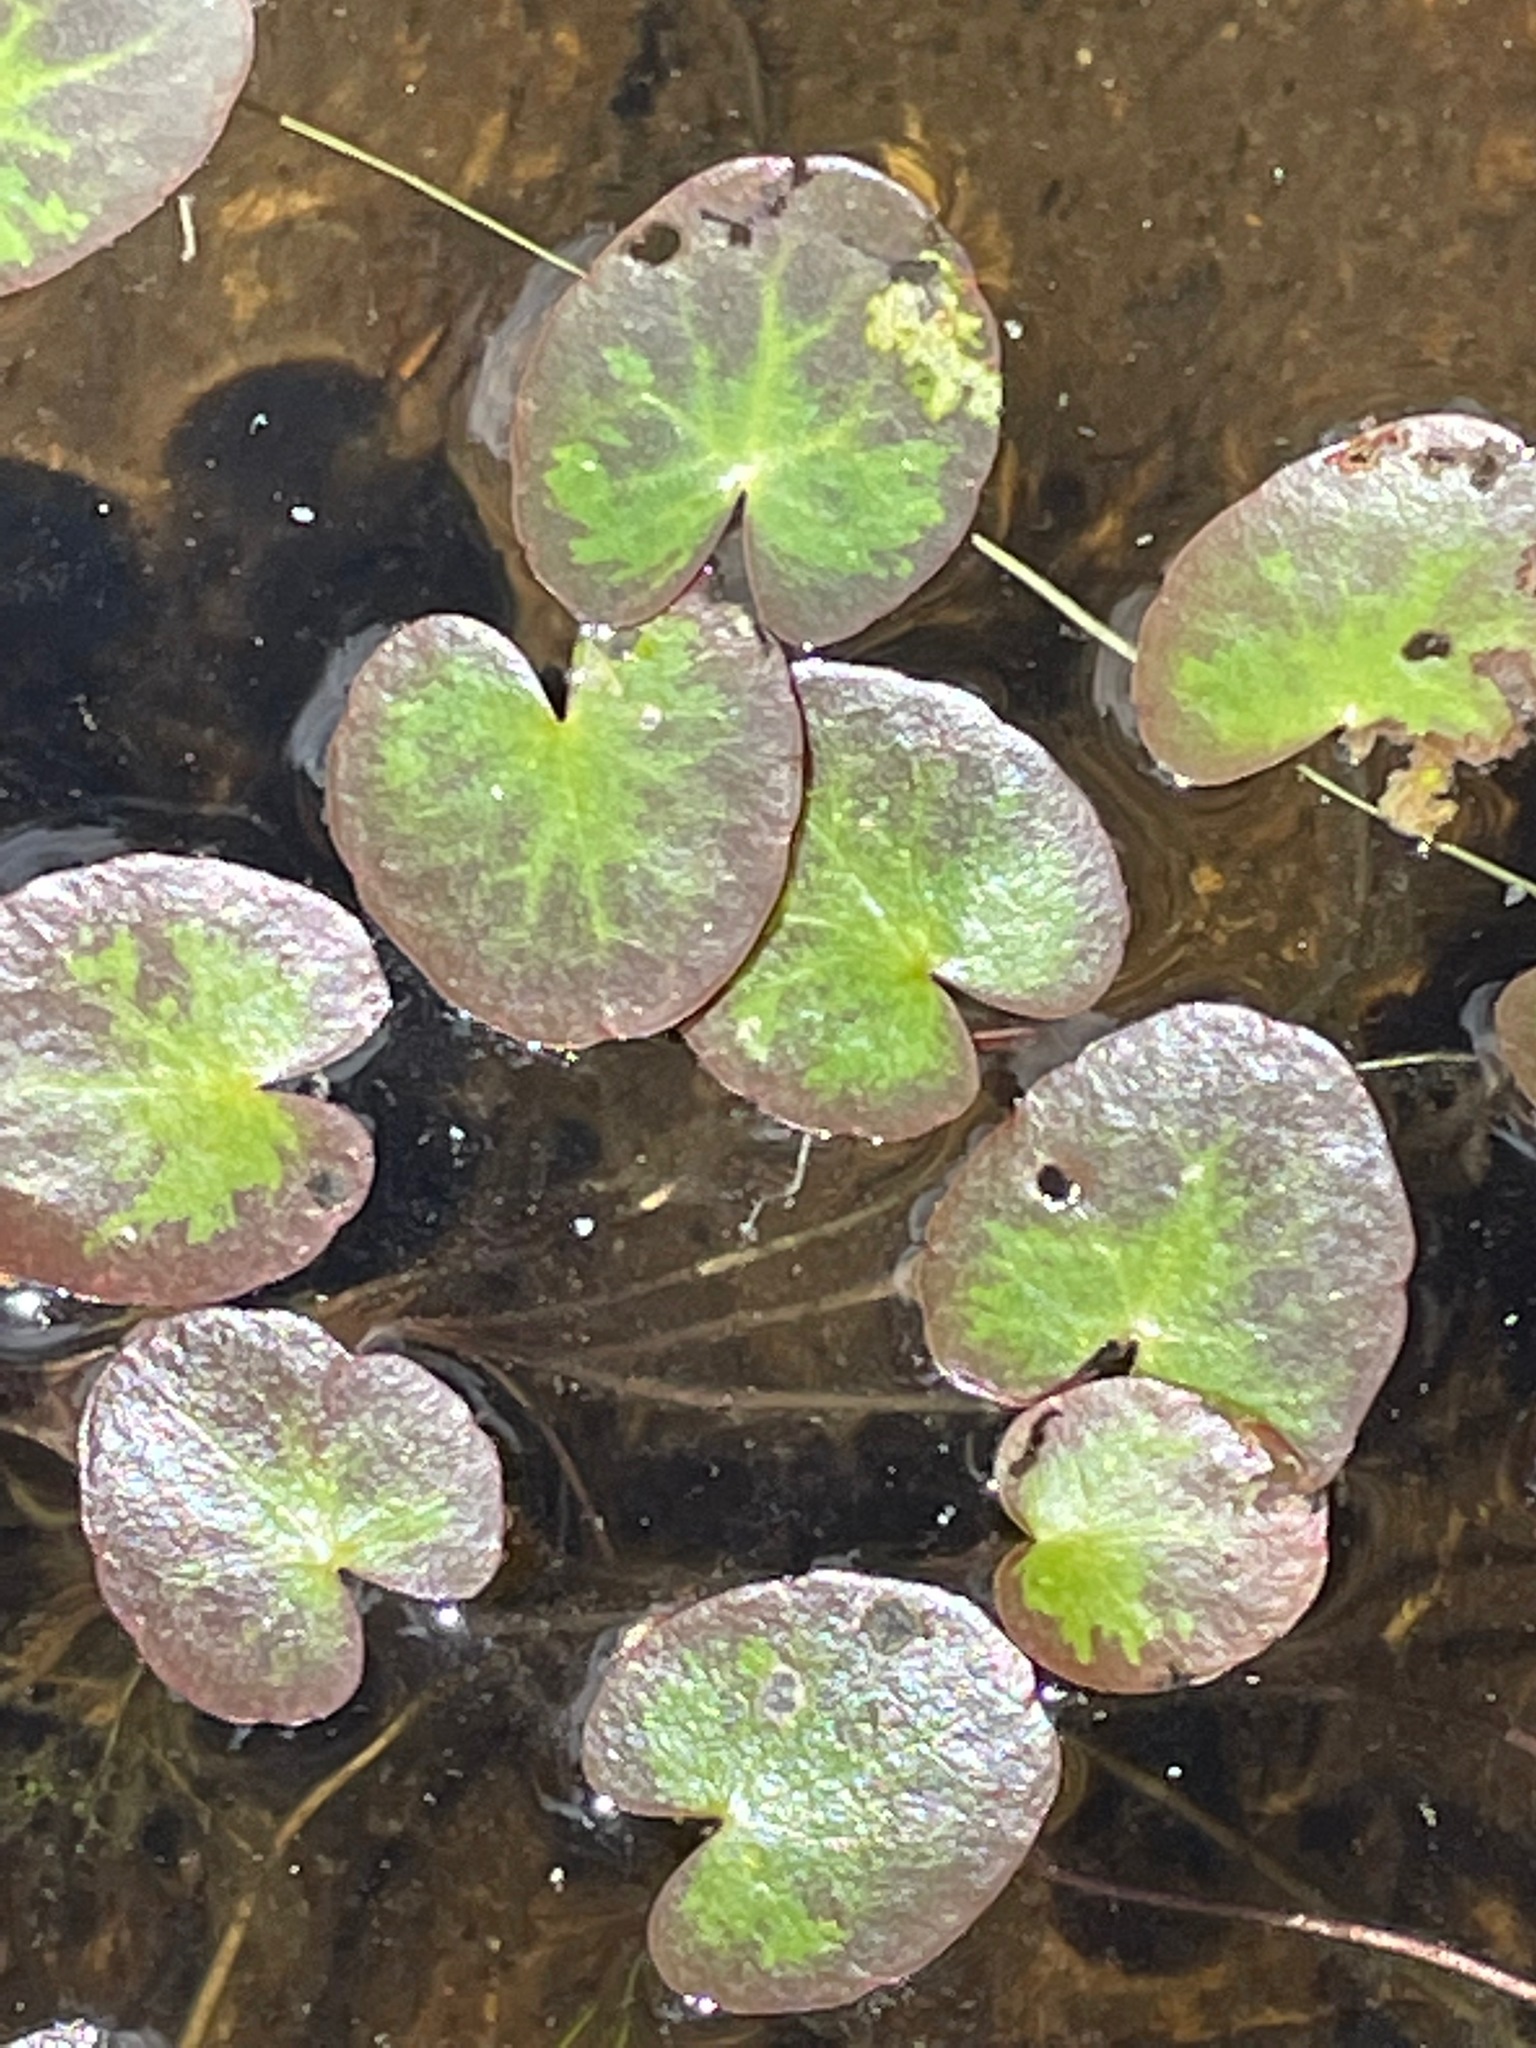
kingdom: Plantae
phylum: Tracheophyta
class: Magnoliopsida
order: Asterales
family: Menyanthaceae
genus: Nymphoides
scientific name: Nymphoides cordata
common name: Eight-angled floatingheart
